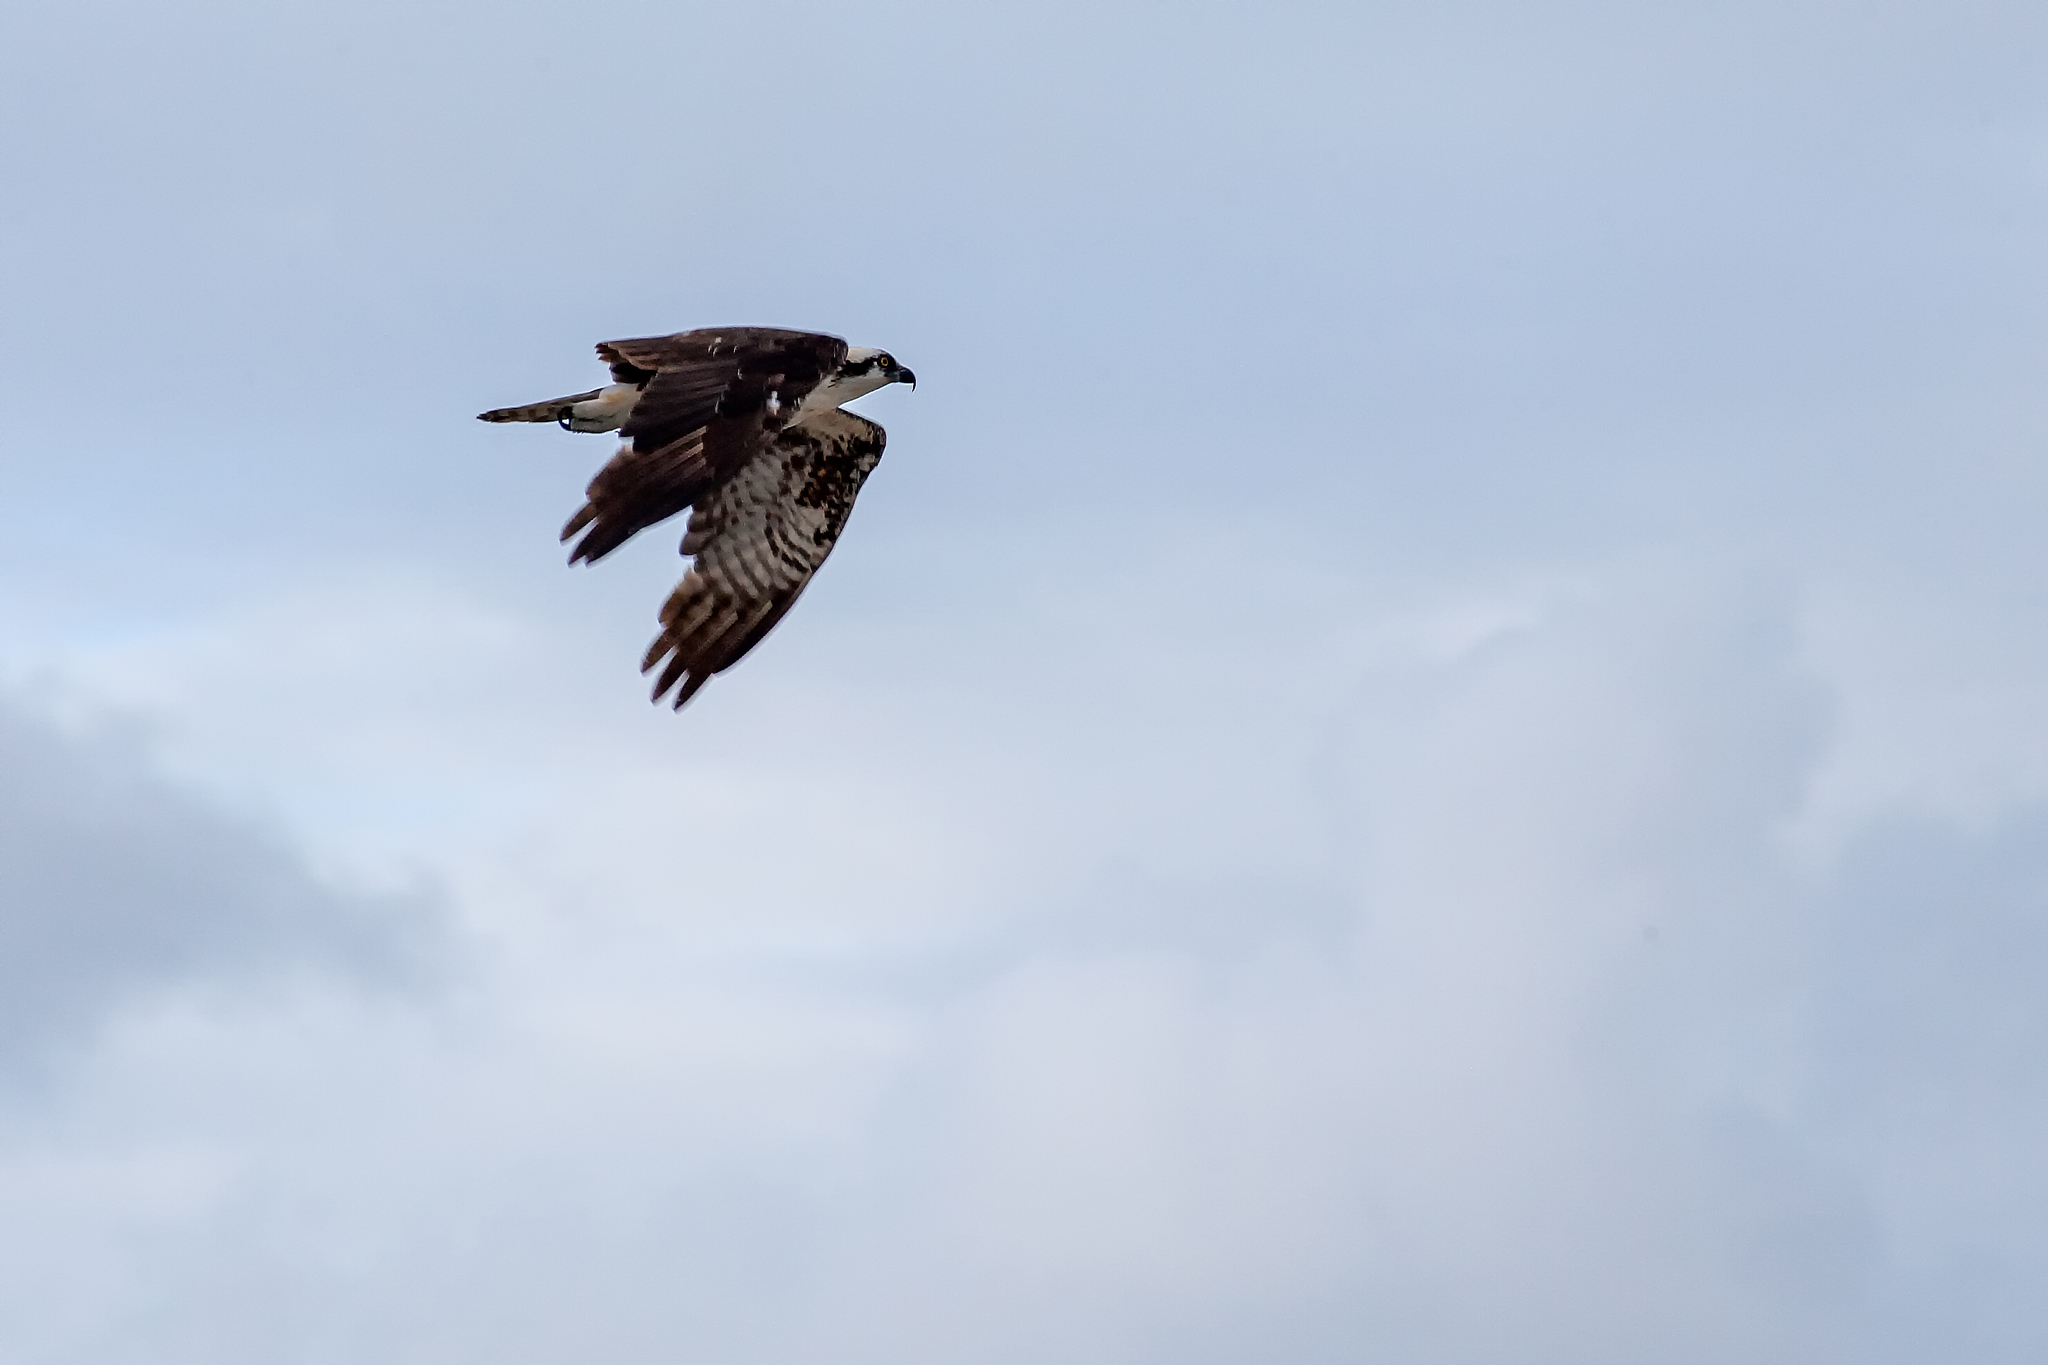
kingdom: Animalia
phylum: Chordata
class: Aves
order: Accipitriformes
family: Pandionidae
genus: Pandion
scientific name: Pandion haliaetus
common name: Osprey
